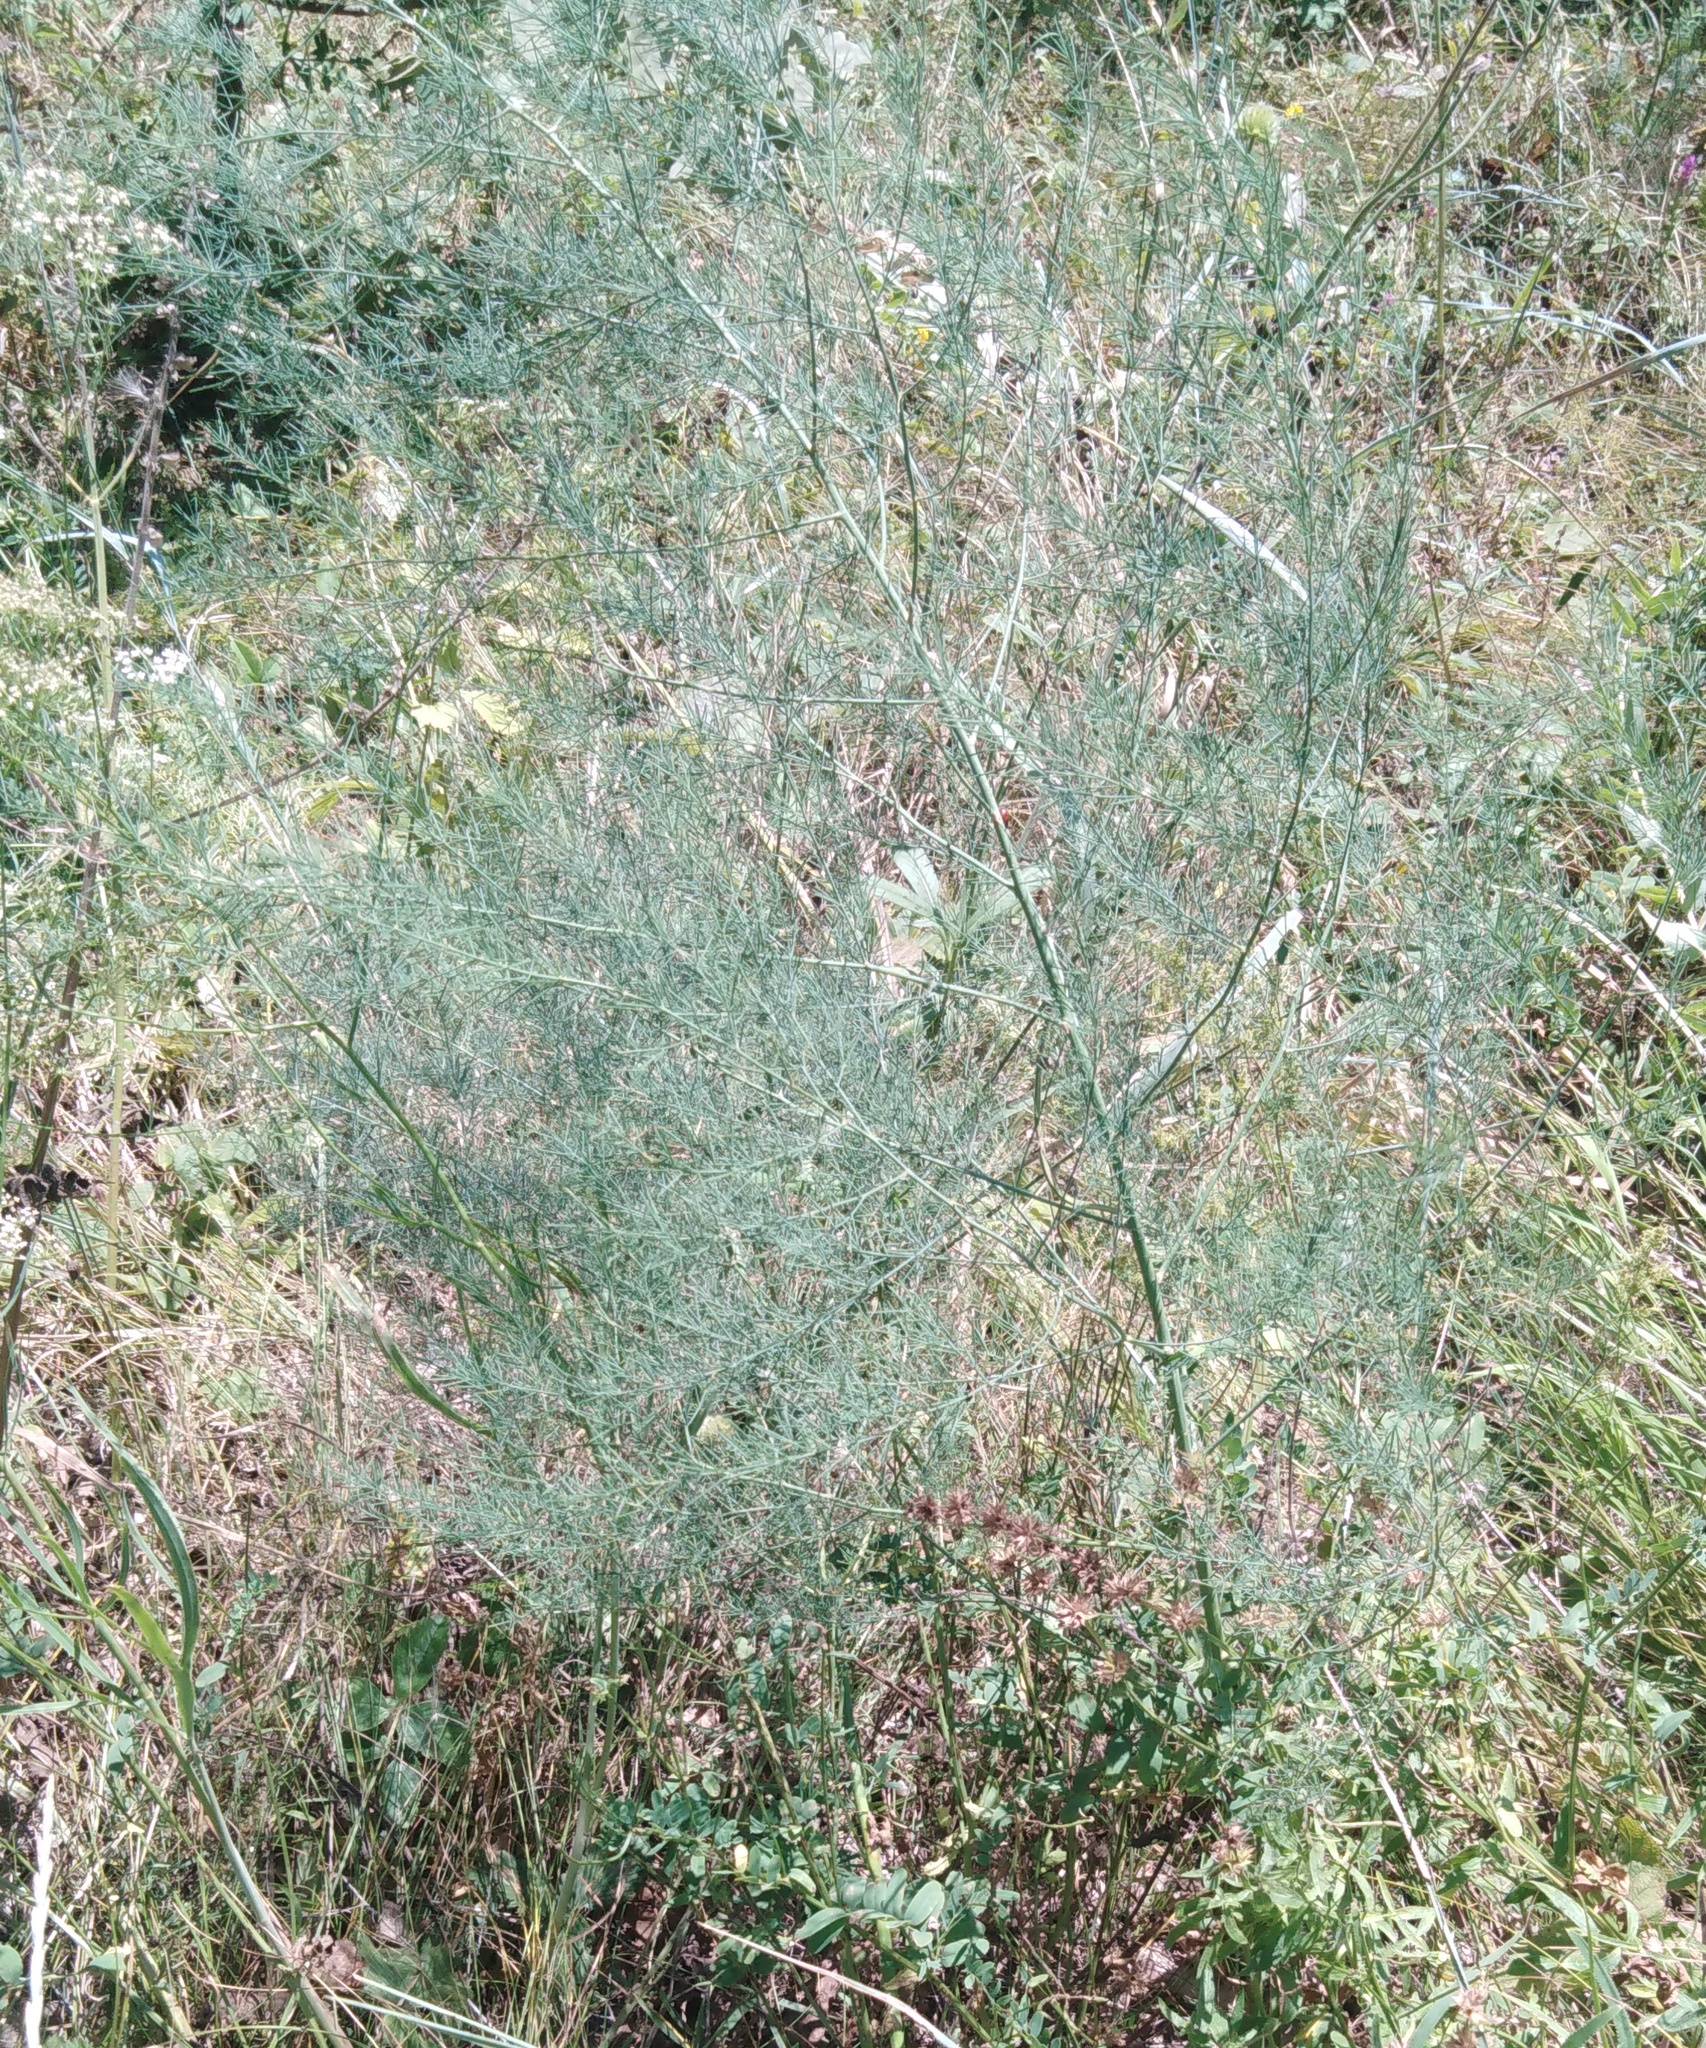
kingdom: Plantae
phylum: Tracheophyta
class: Liliopsida
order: Asparagales
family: Asparagaceae
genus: Asparagus
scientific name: Asparagus officinalis
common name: Garden asparagus
